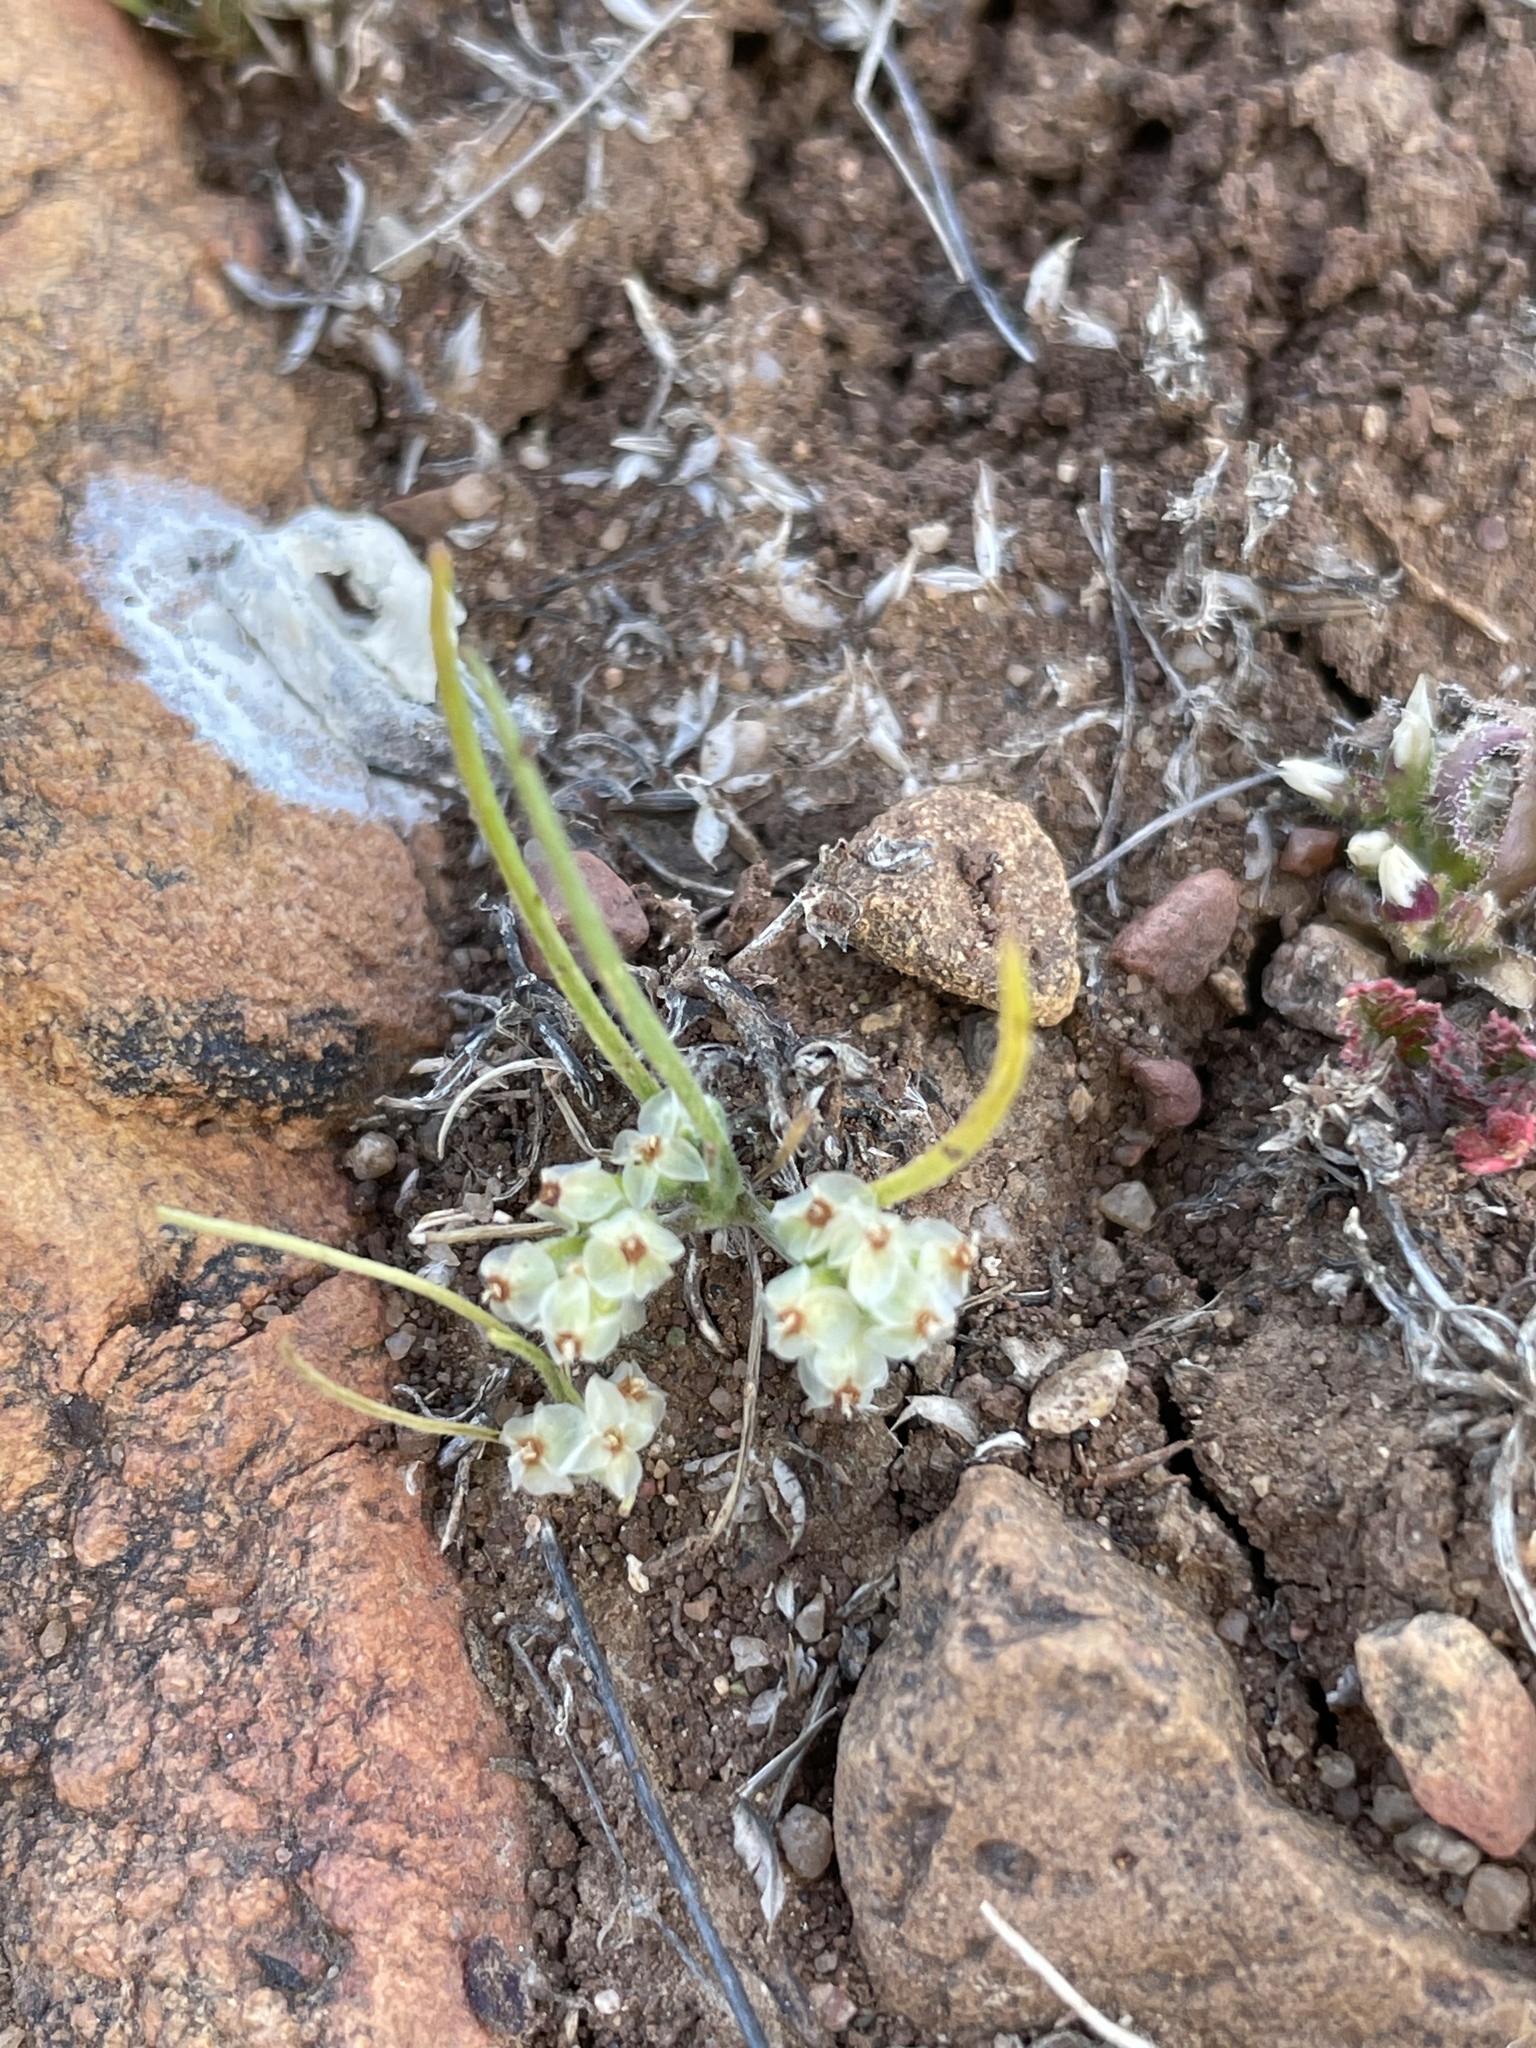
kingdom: Plantae
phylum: Tracheophyta
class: Magnoliopsida
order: Lamiales
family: Plantaginaceae
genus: Plantago
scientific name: Plantago erecta
